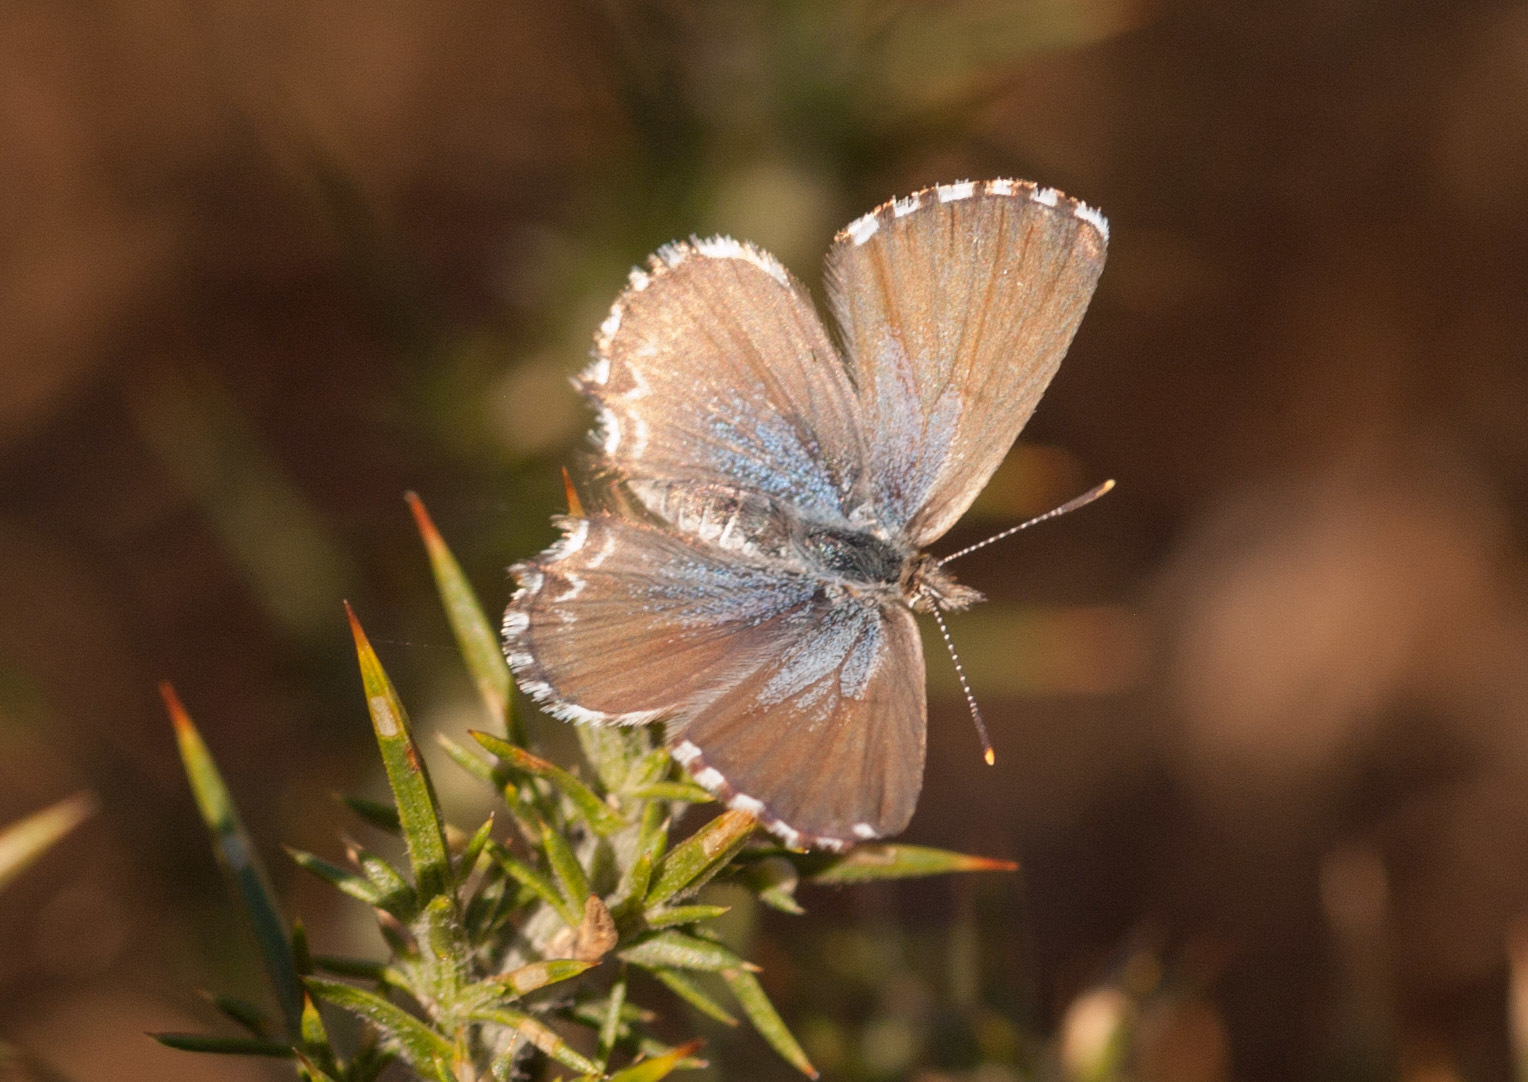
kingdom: Animalia
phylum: Arthropoda
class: Insecta
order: Lepidoptera
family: Lycaenidae
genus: Theclinesthes
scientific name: Theclinesthes serpentata
